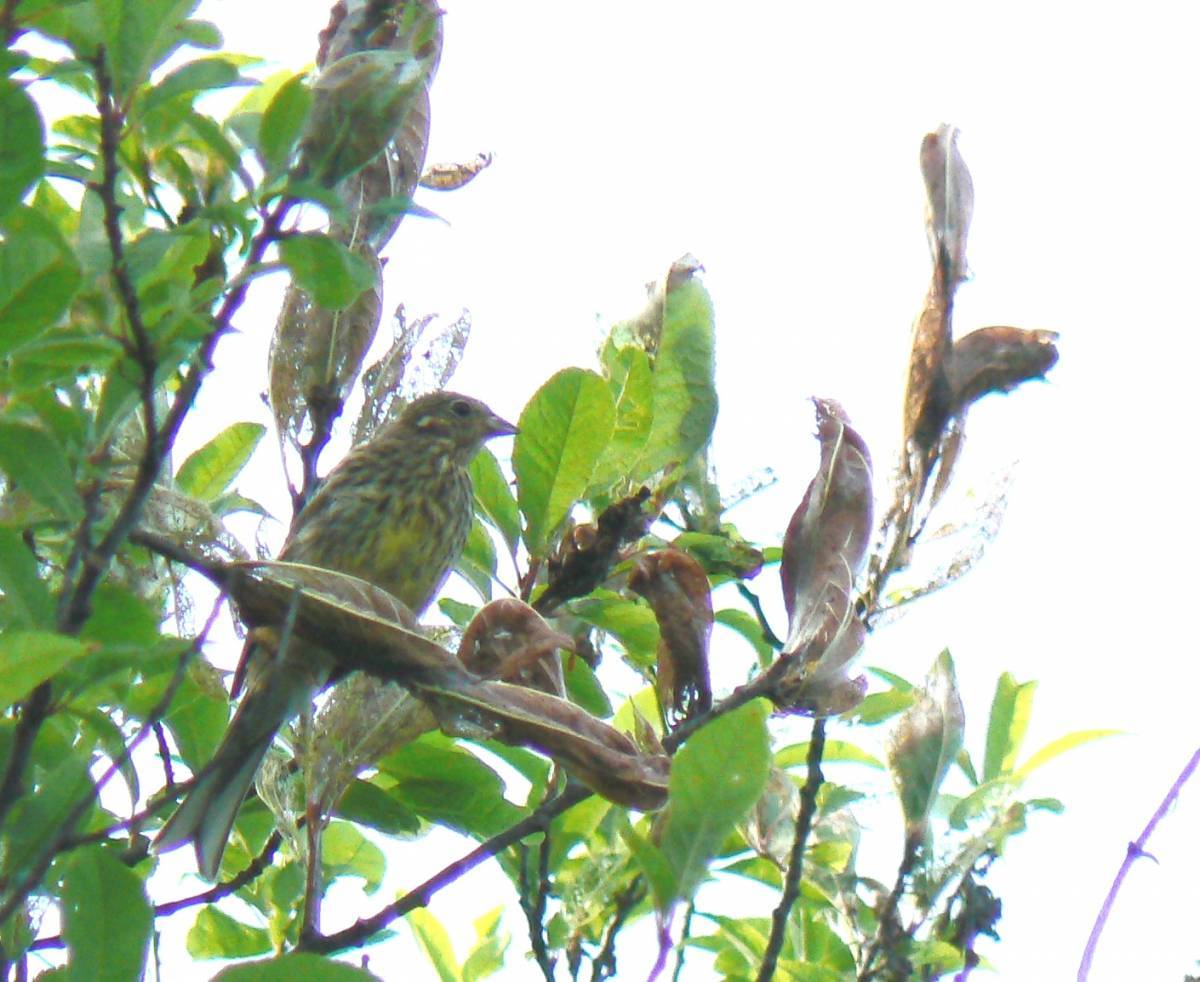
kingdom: Animalia
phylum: Chordata
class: Aves
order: Passeriformes
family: Emberizidae
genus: Emberiza
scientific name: Emberiza citrinella
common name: Yellowhammer
